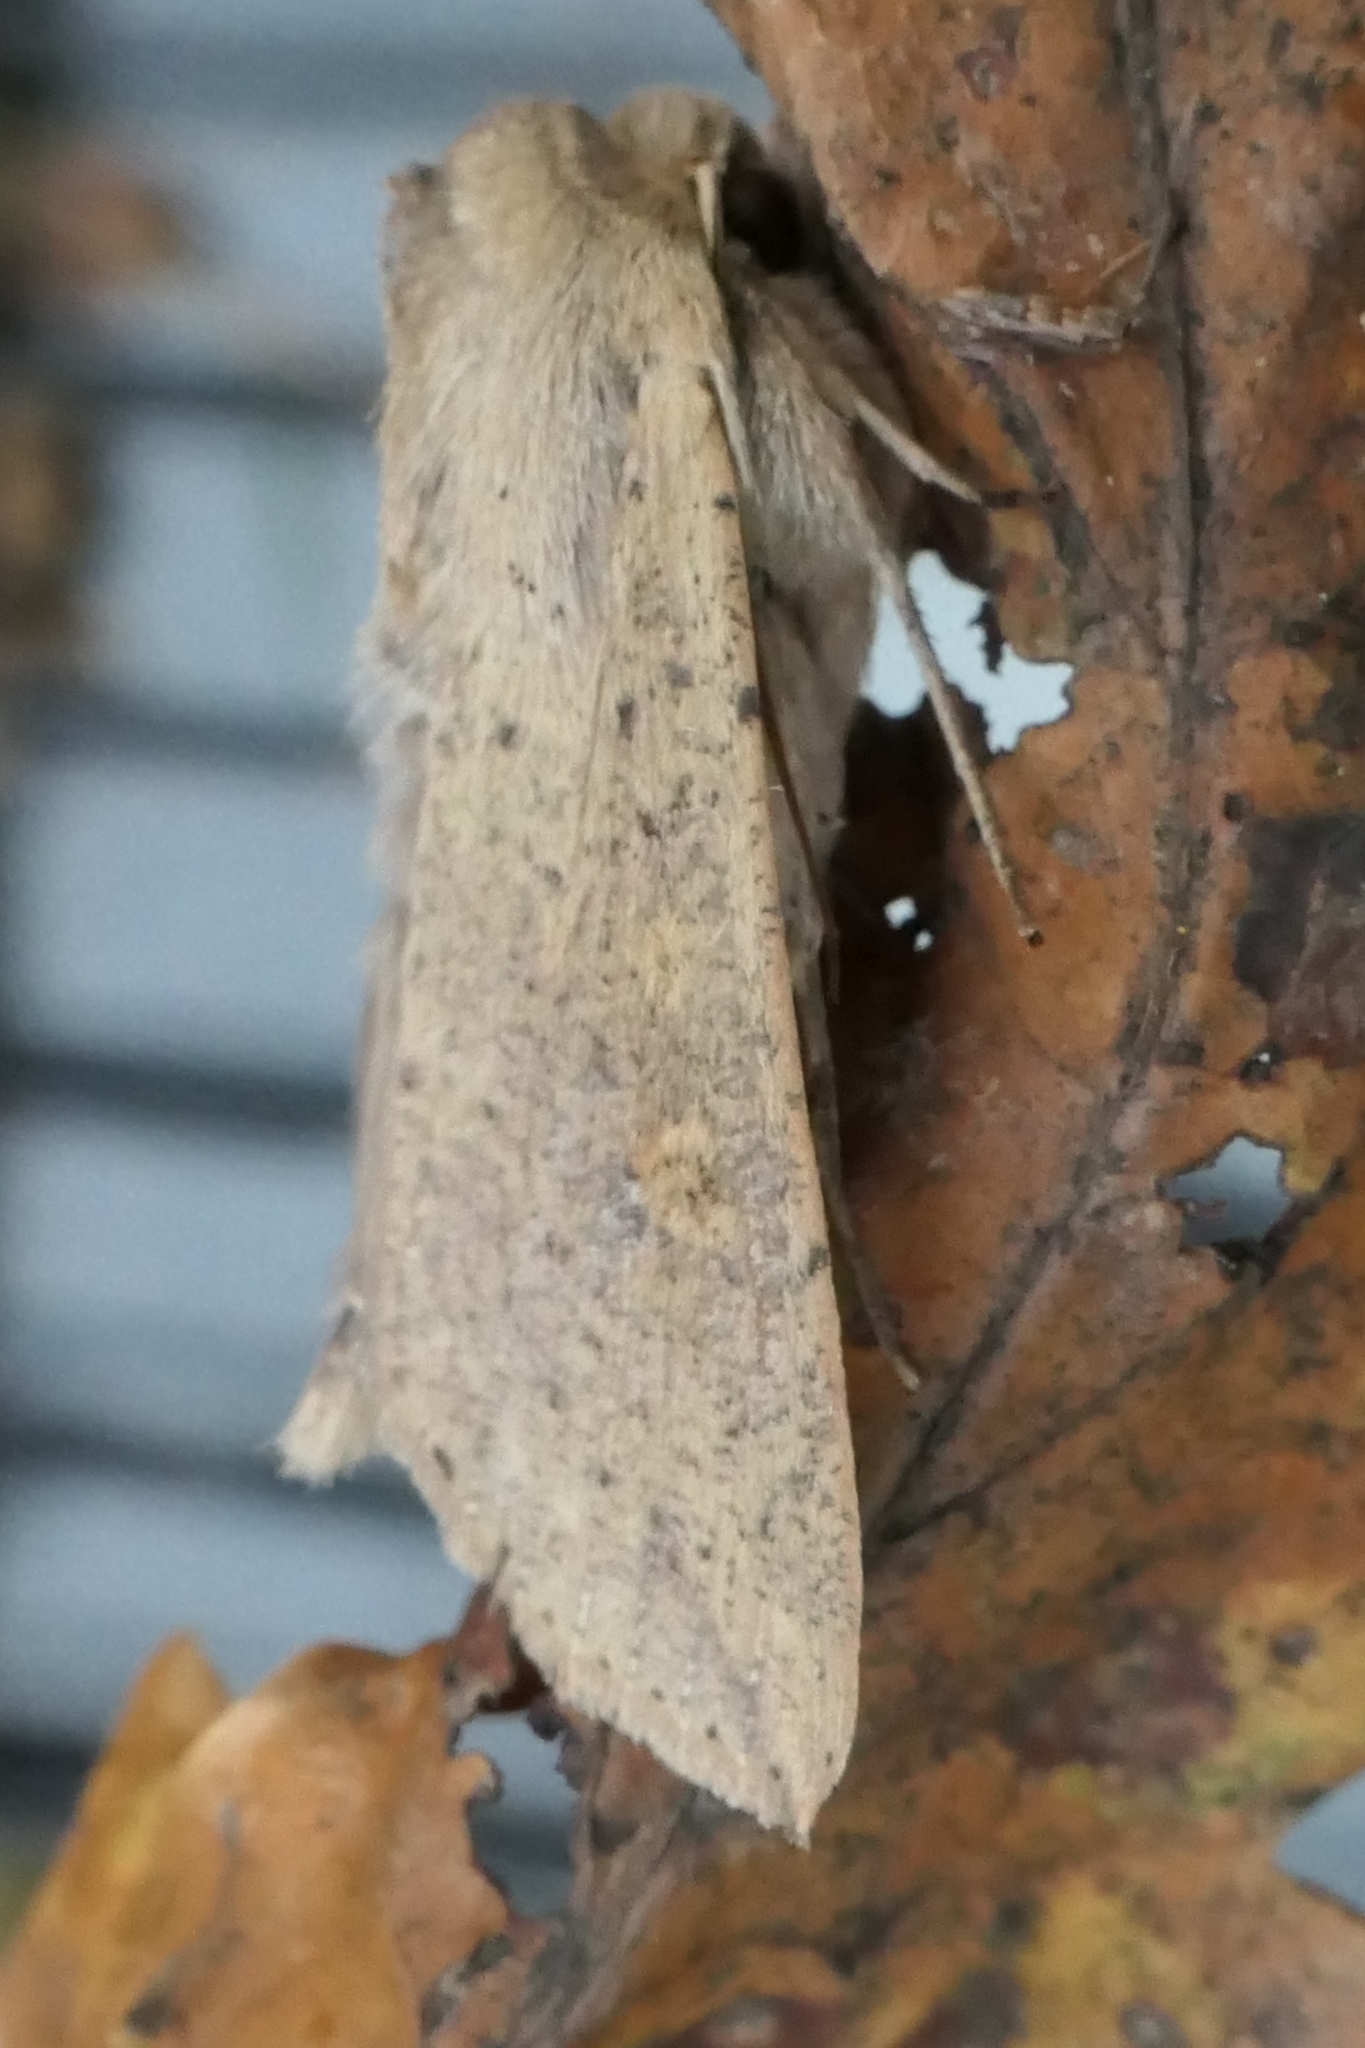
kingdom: Animalia
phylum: Arthropoda
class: Insecta
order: Lepidoptera
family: Noctuidae
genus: Mythimna
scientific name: Mythimna separata
